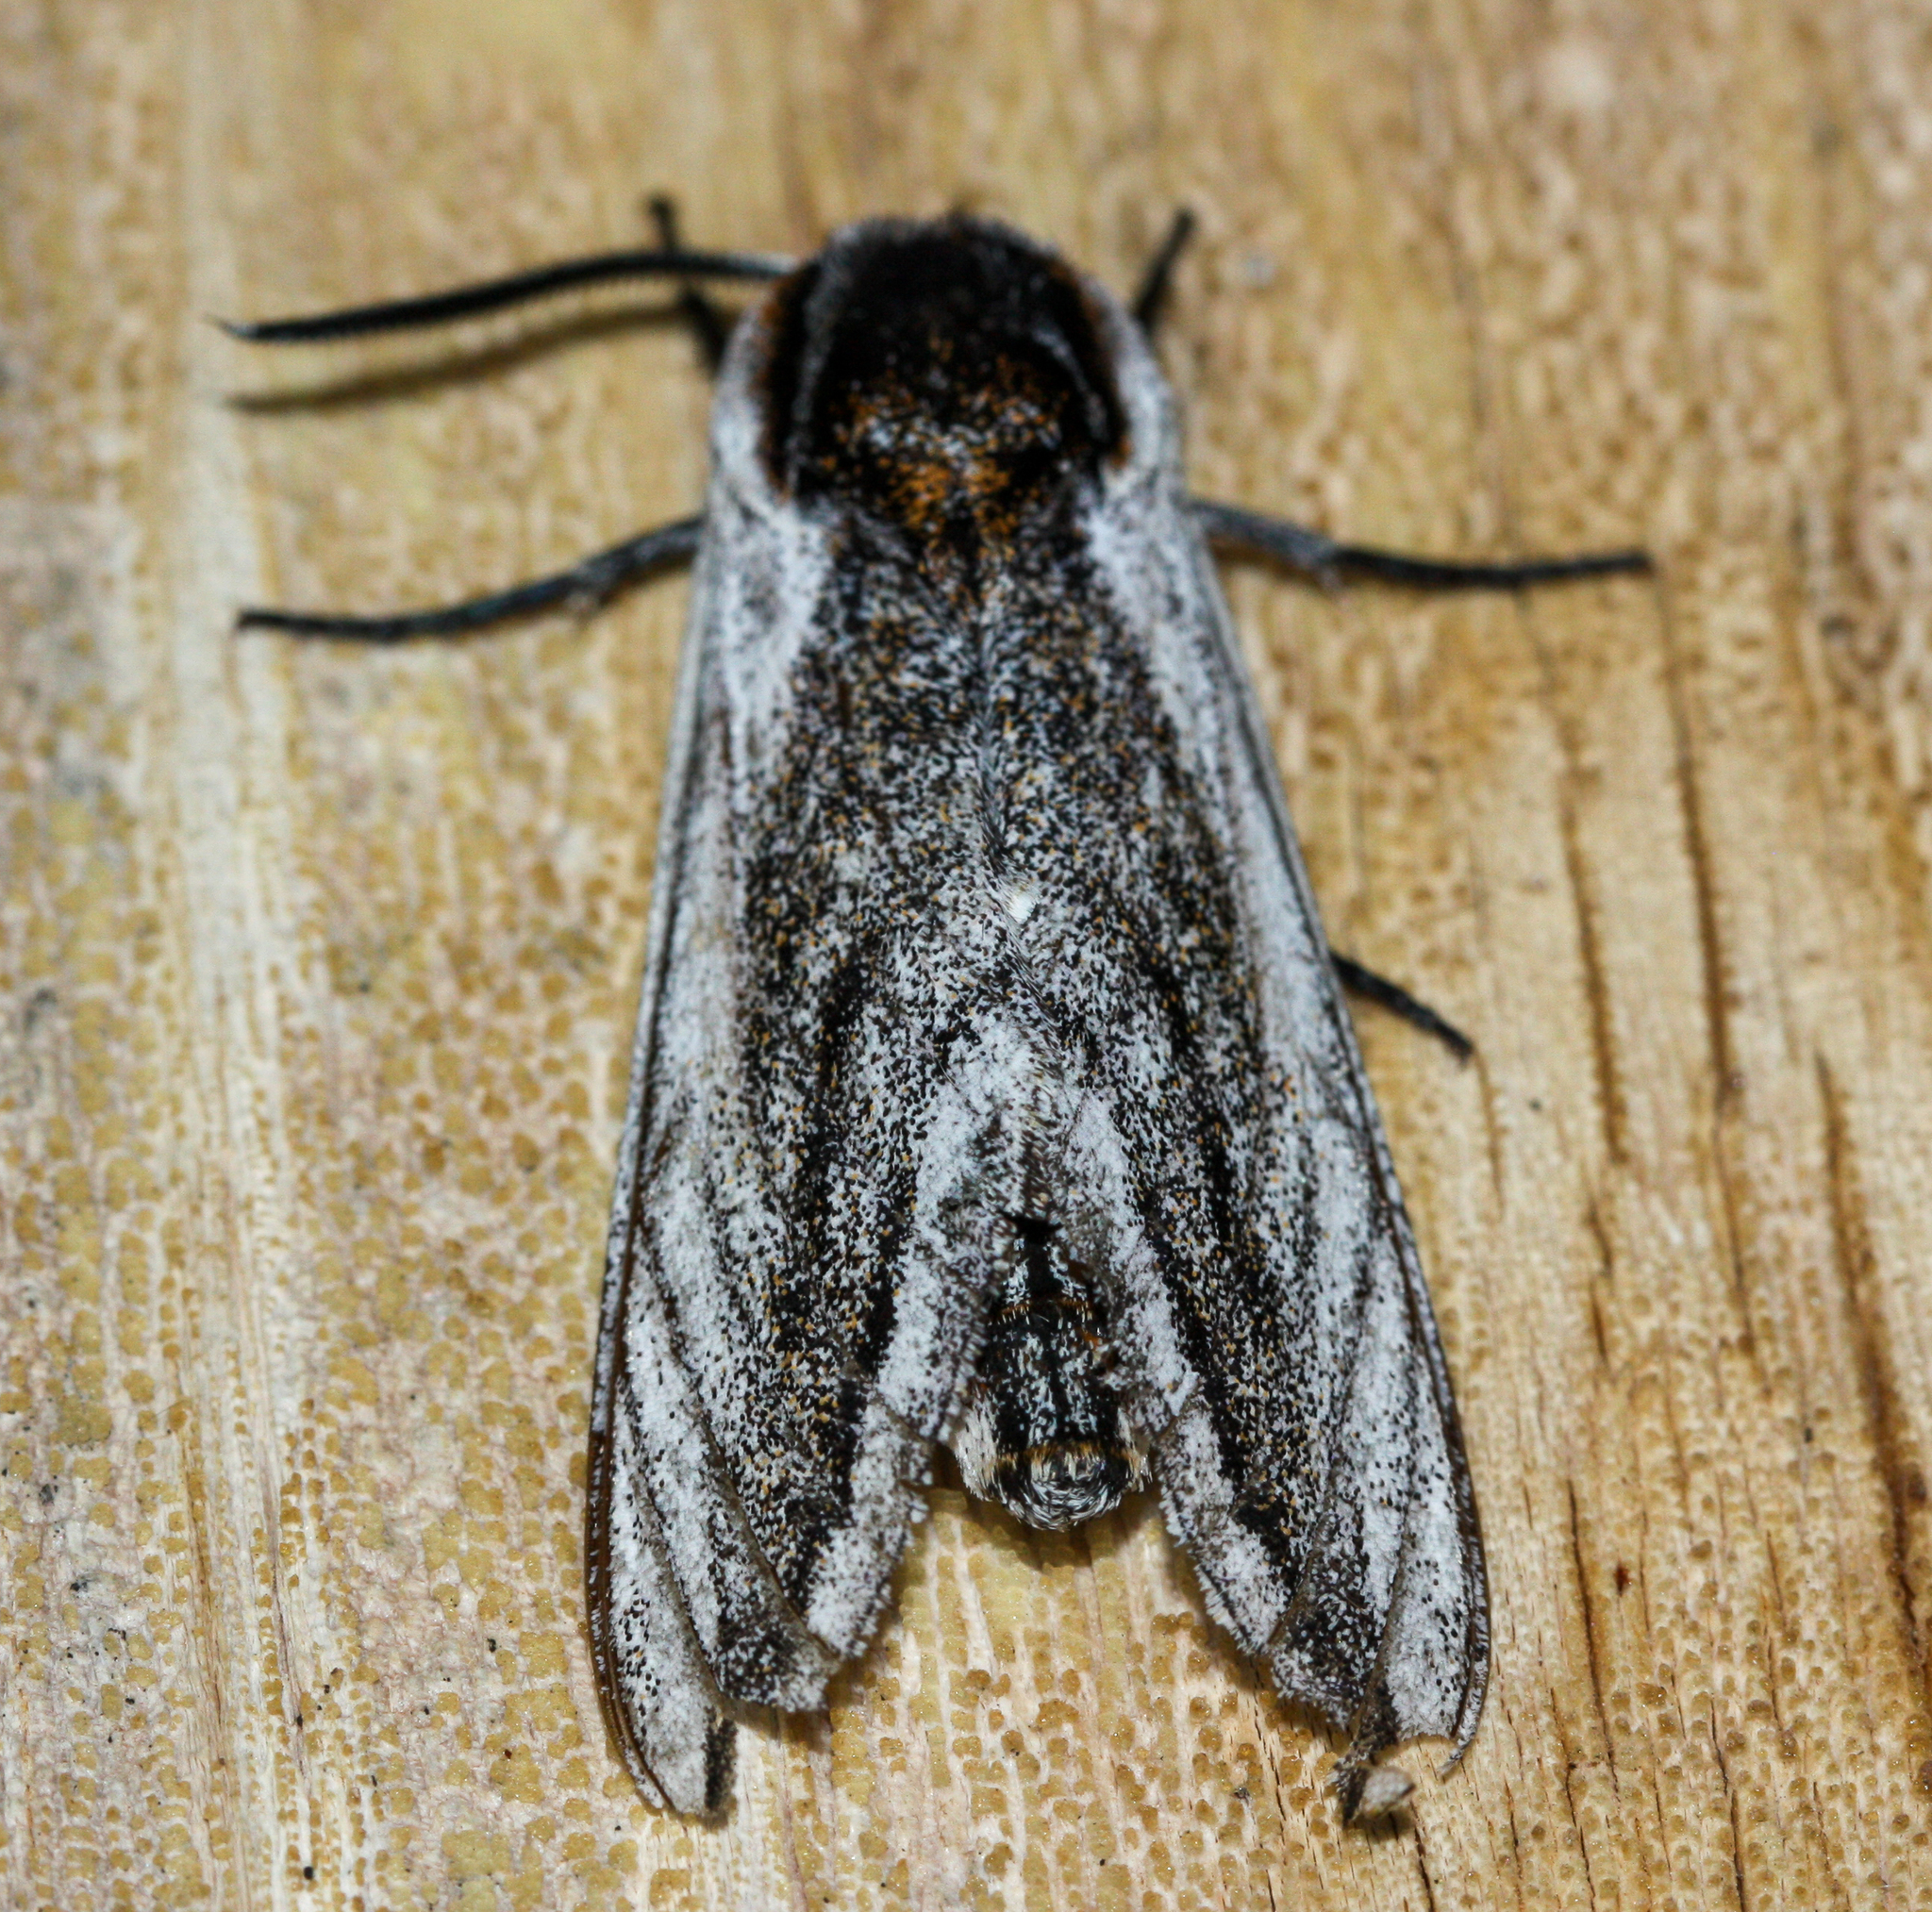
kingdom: Animalia
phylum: Arthropoda
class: Insecta
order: Lepidoptera
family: Sphingidae
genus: Sagenosoma
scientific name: Sagenosoma elsa
